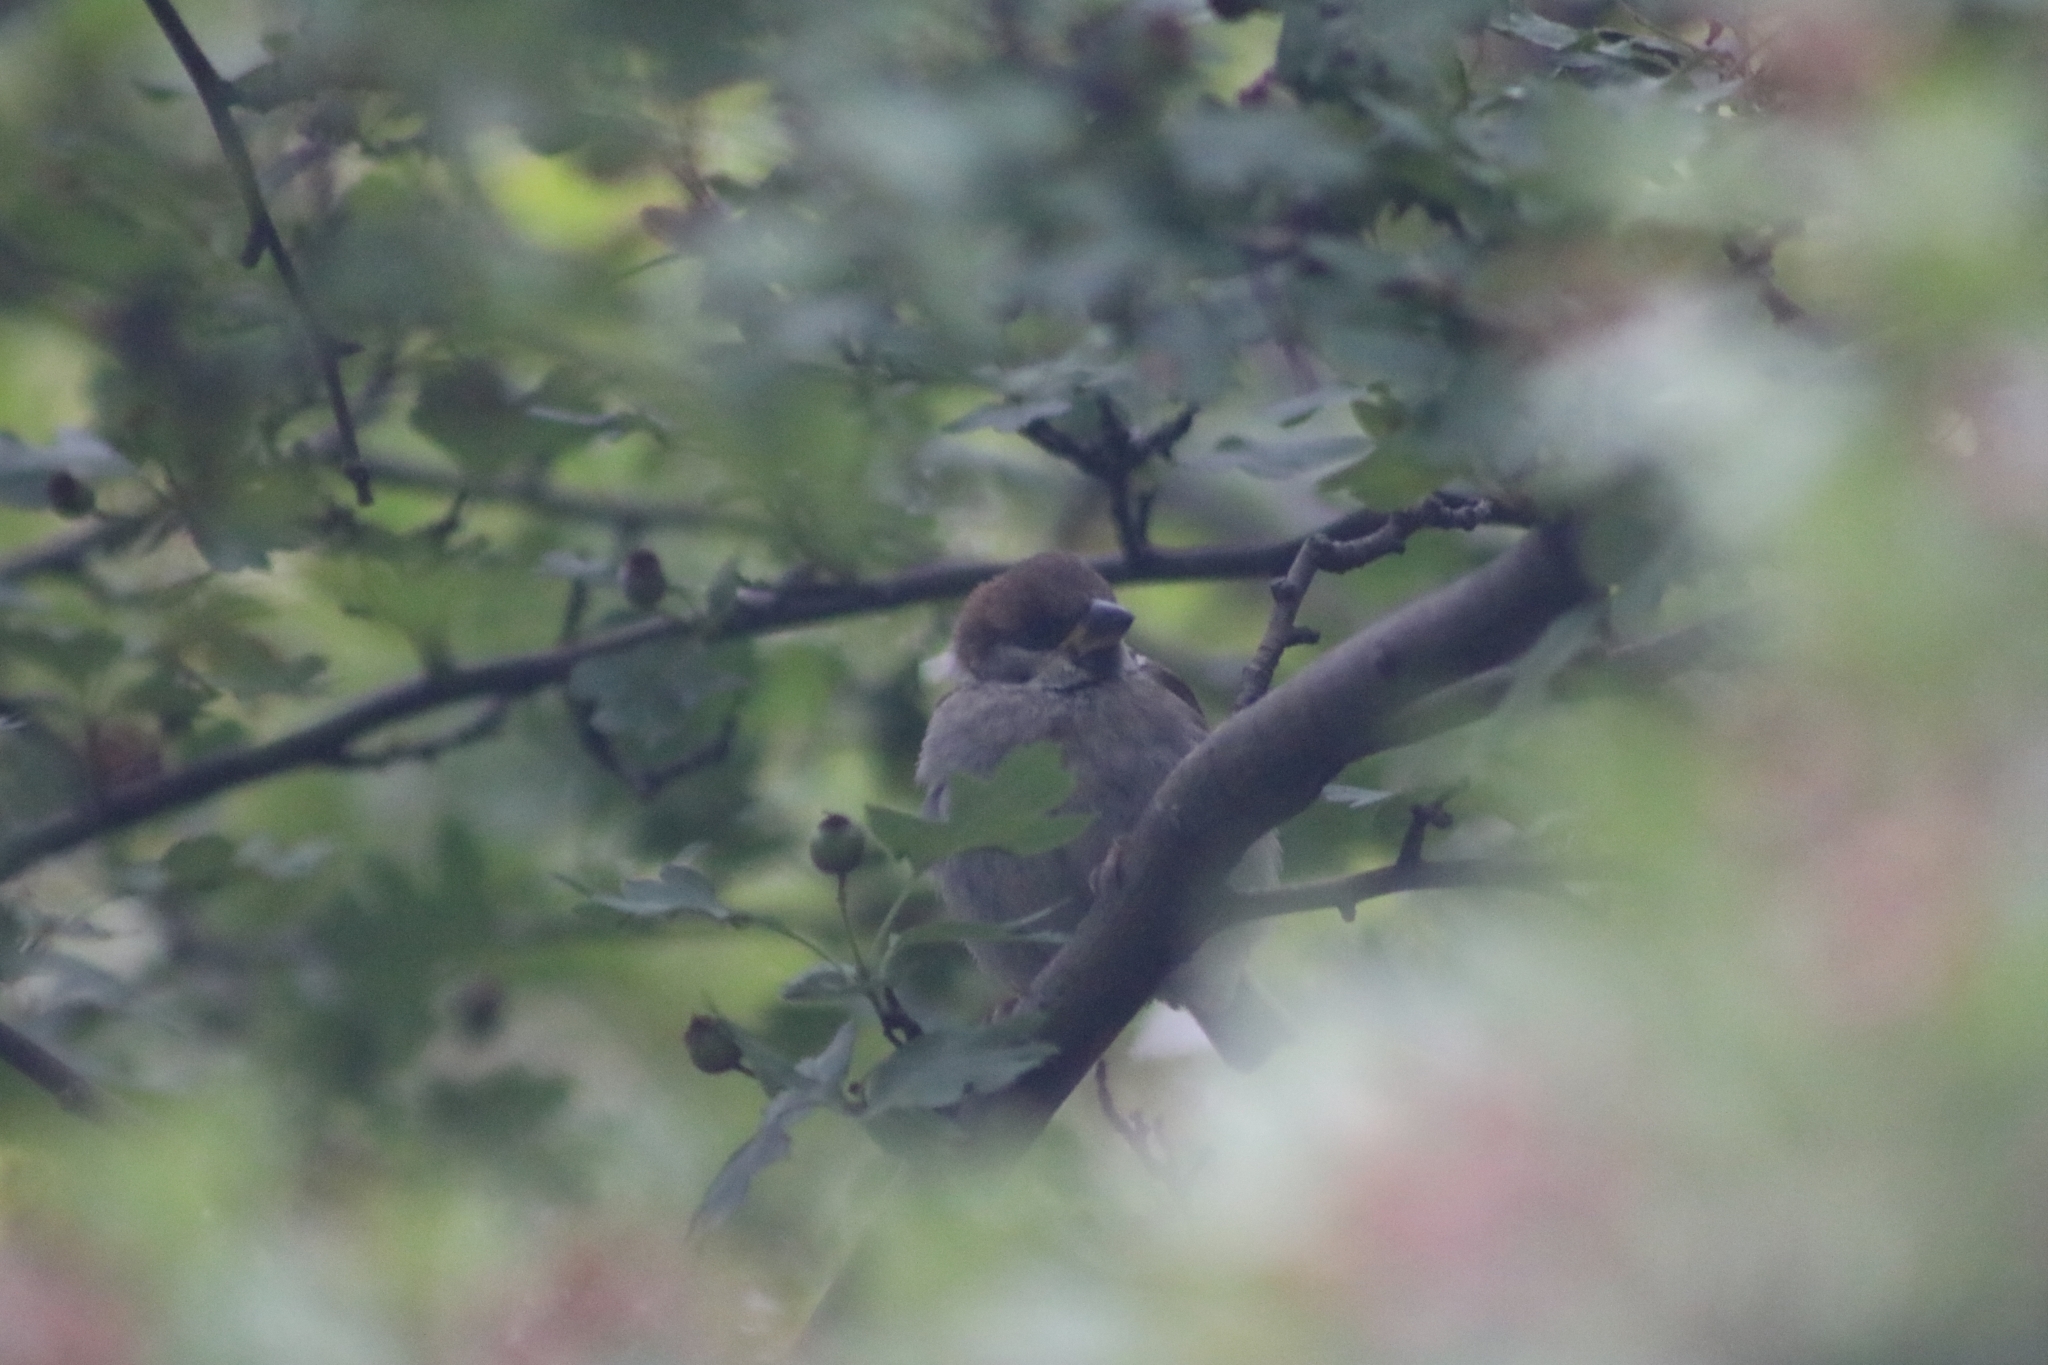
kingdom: Animalia
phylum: Chordata
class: Aves
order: Passeriformes
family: Passeridae
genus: Passer
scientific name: Passer montanus
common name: Eurasian tree sparrow
